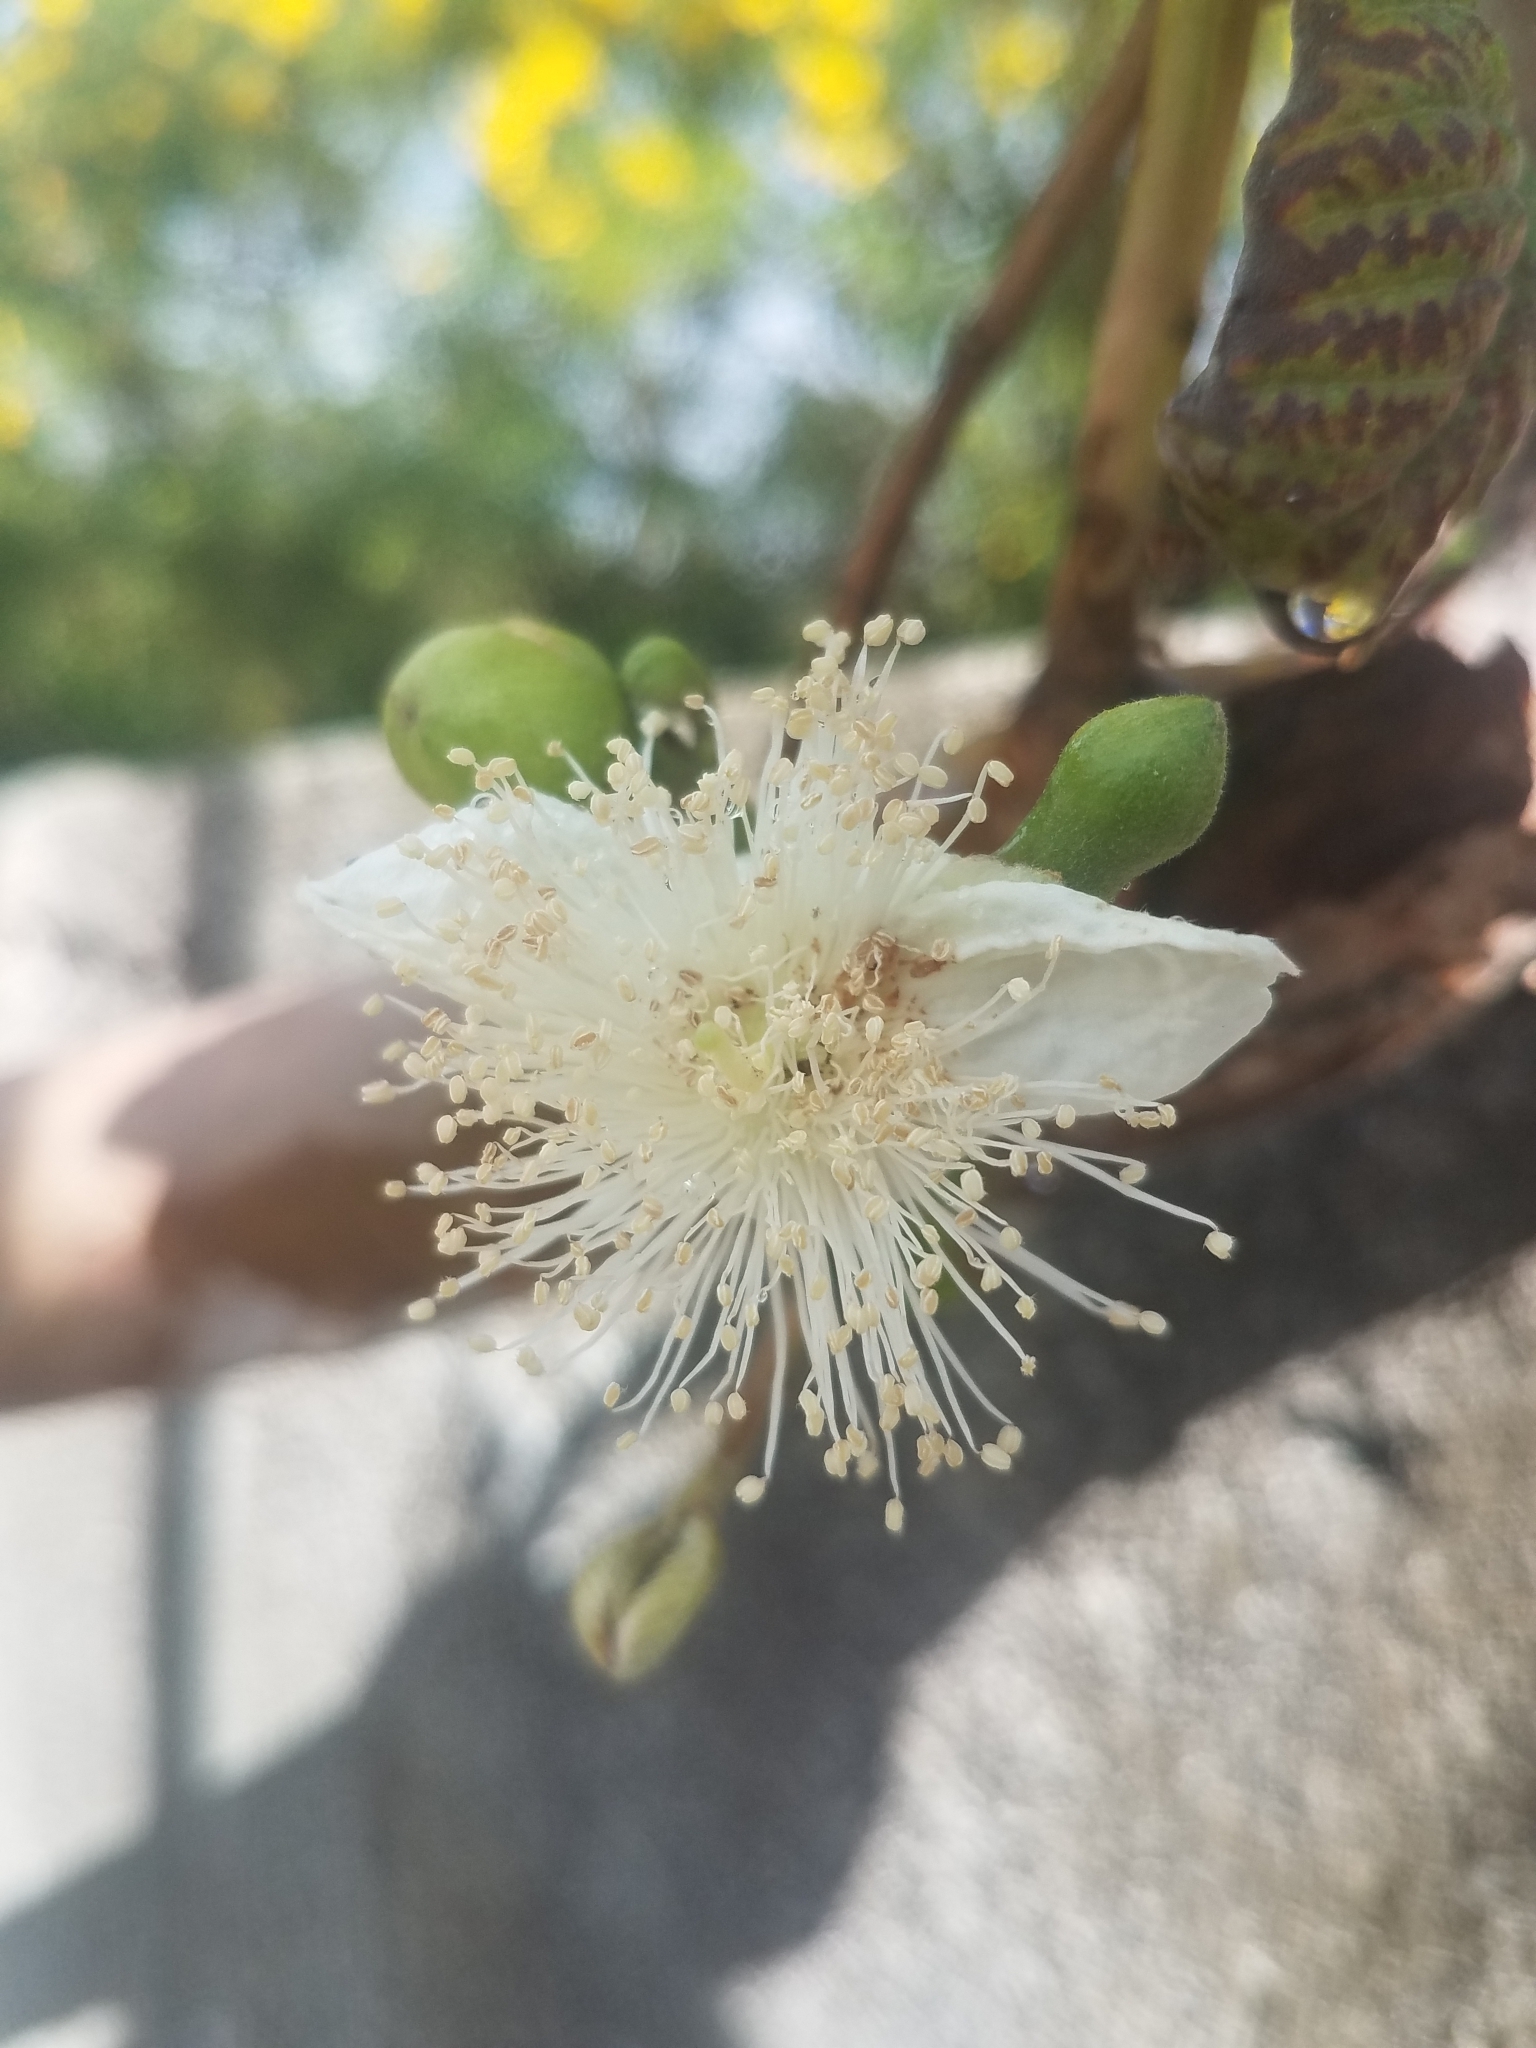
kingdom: Plantae
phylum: Tracheophyta
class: Magnoliopsida
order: Myrtales
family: Myrtaceae
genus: Psidium
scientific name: Psidium guajava
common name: Guava
